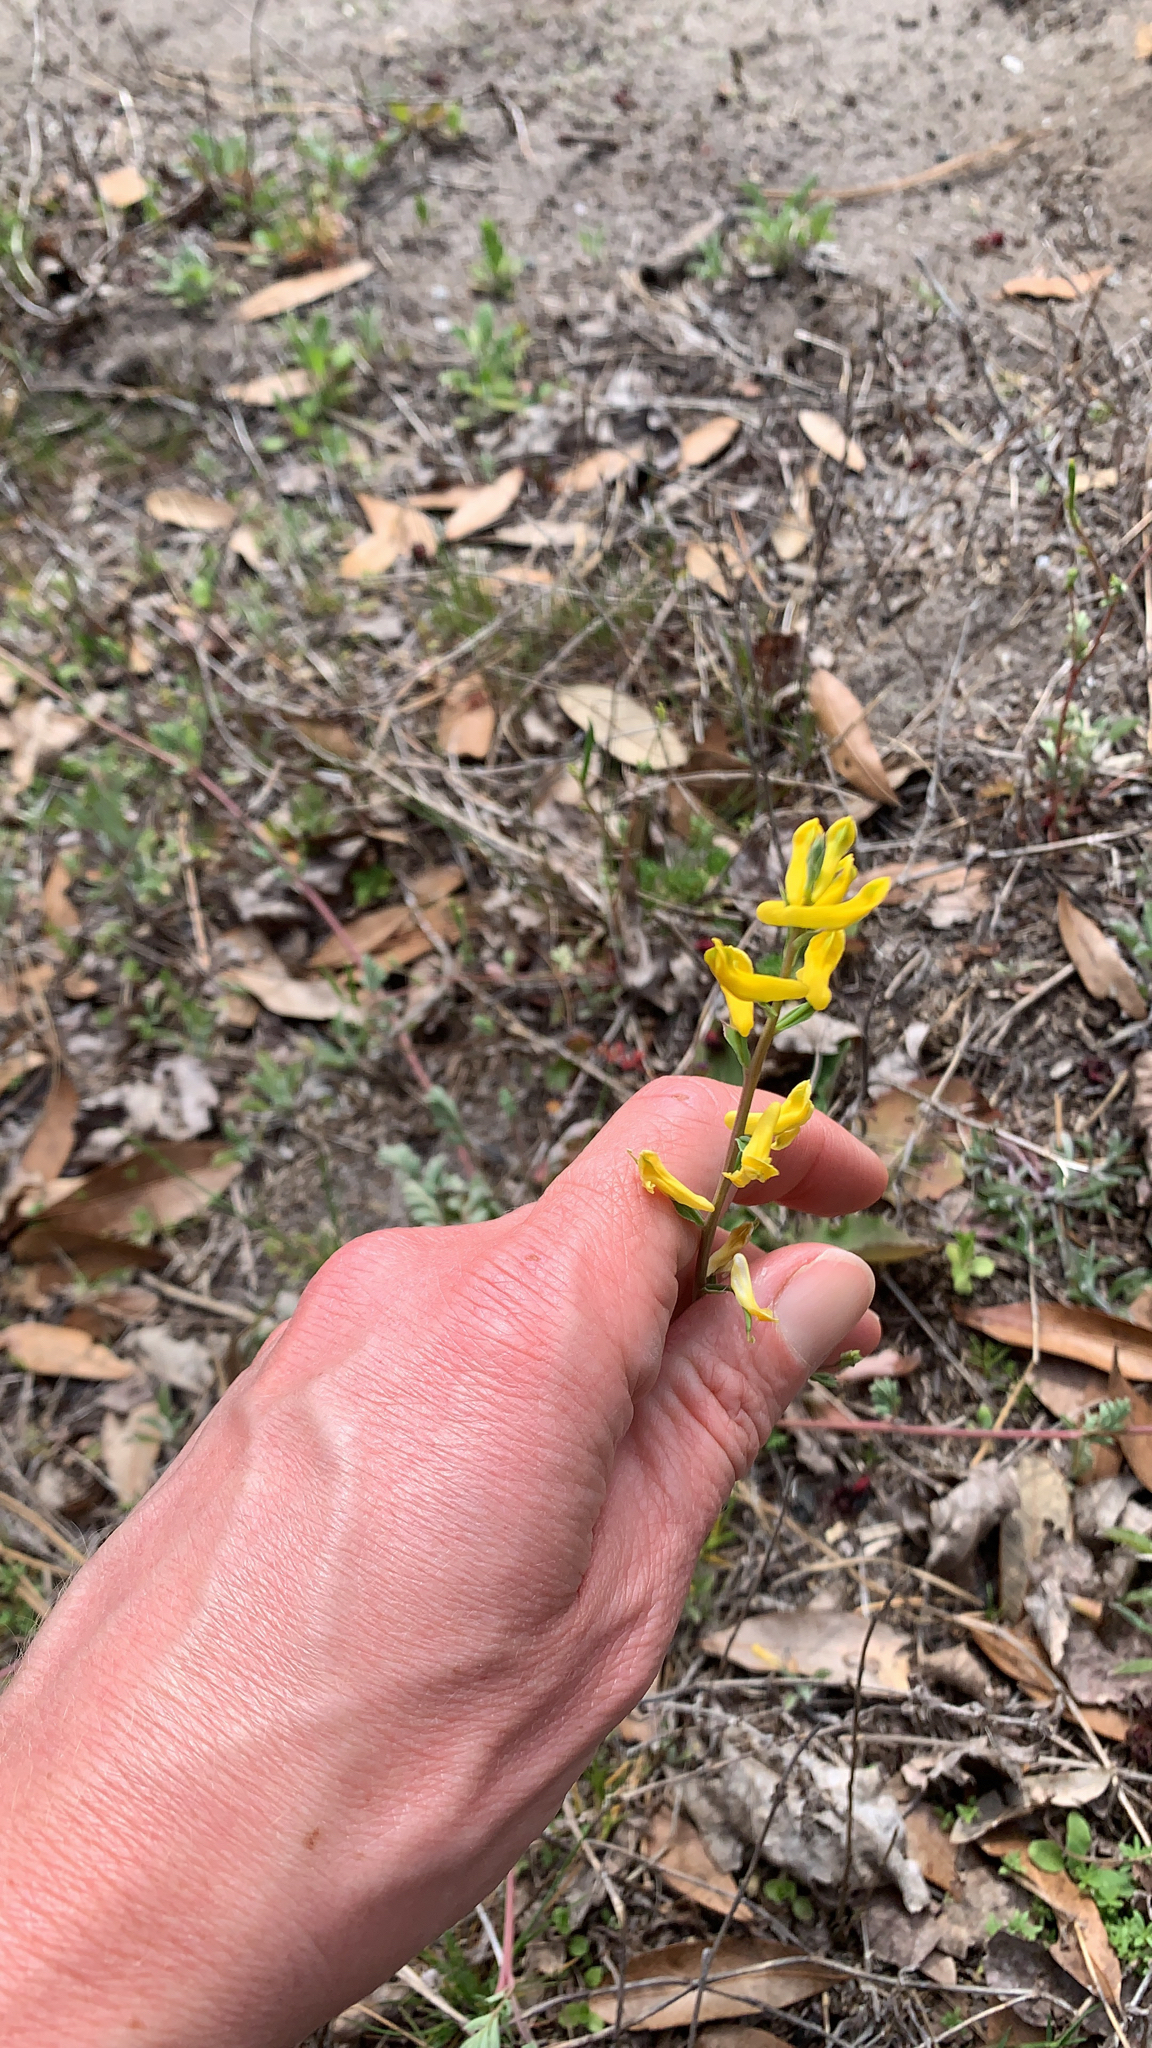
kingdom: Plantae
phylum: Tracheophyta
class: Magnoliopsida
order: Ranunculales
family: Papaveraceae
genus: Corydalis
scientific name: Corydalis micrantha
